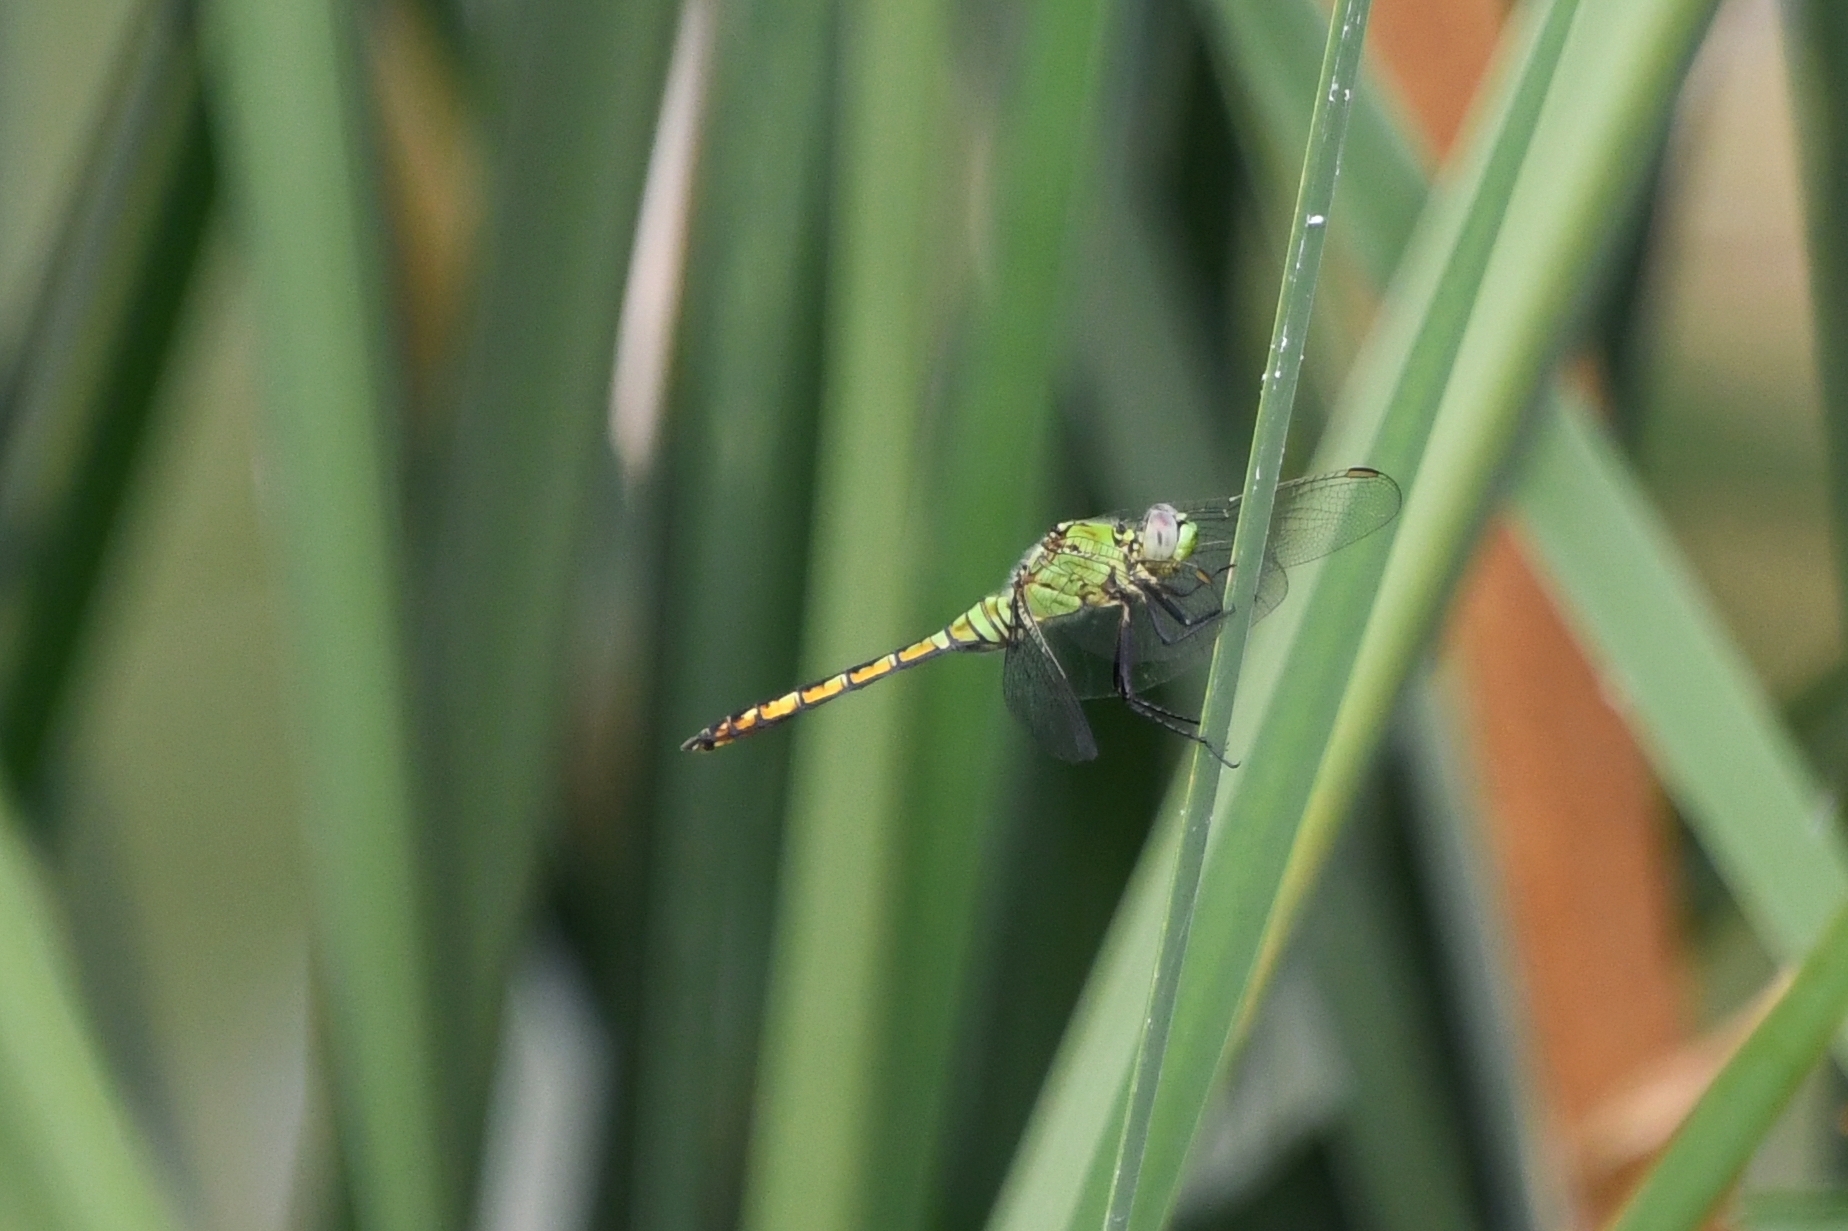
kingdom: Animalia
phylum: Arthropoda
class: Insecta
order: Odonata
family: Libellulidae
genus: Erythemis
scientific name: Erythemis collocata
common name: Western pondhawk
